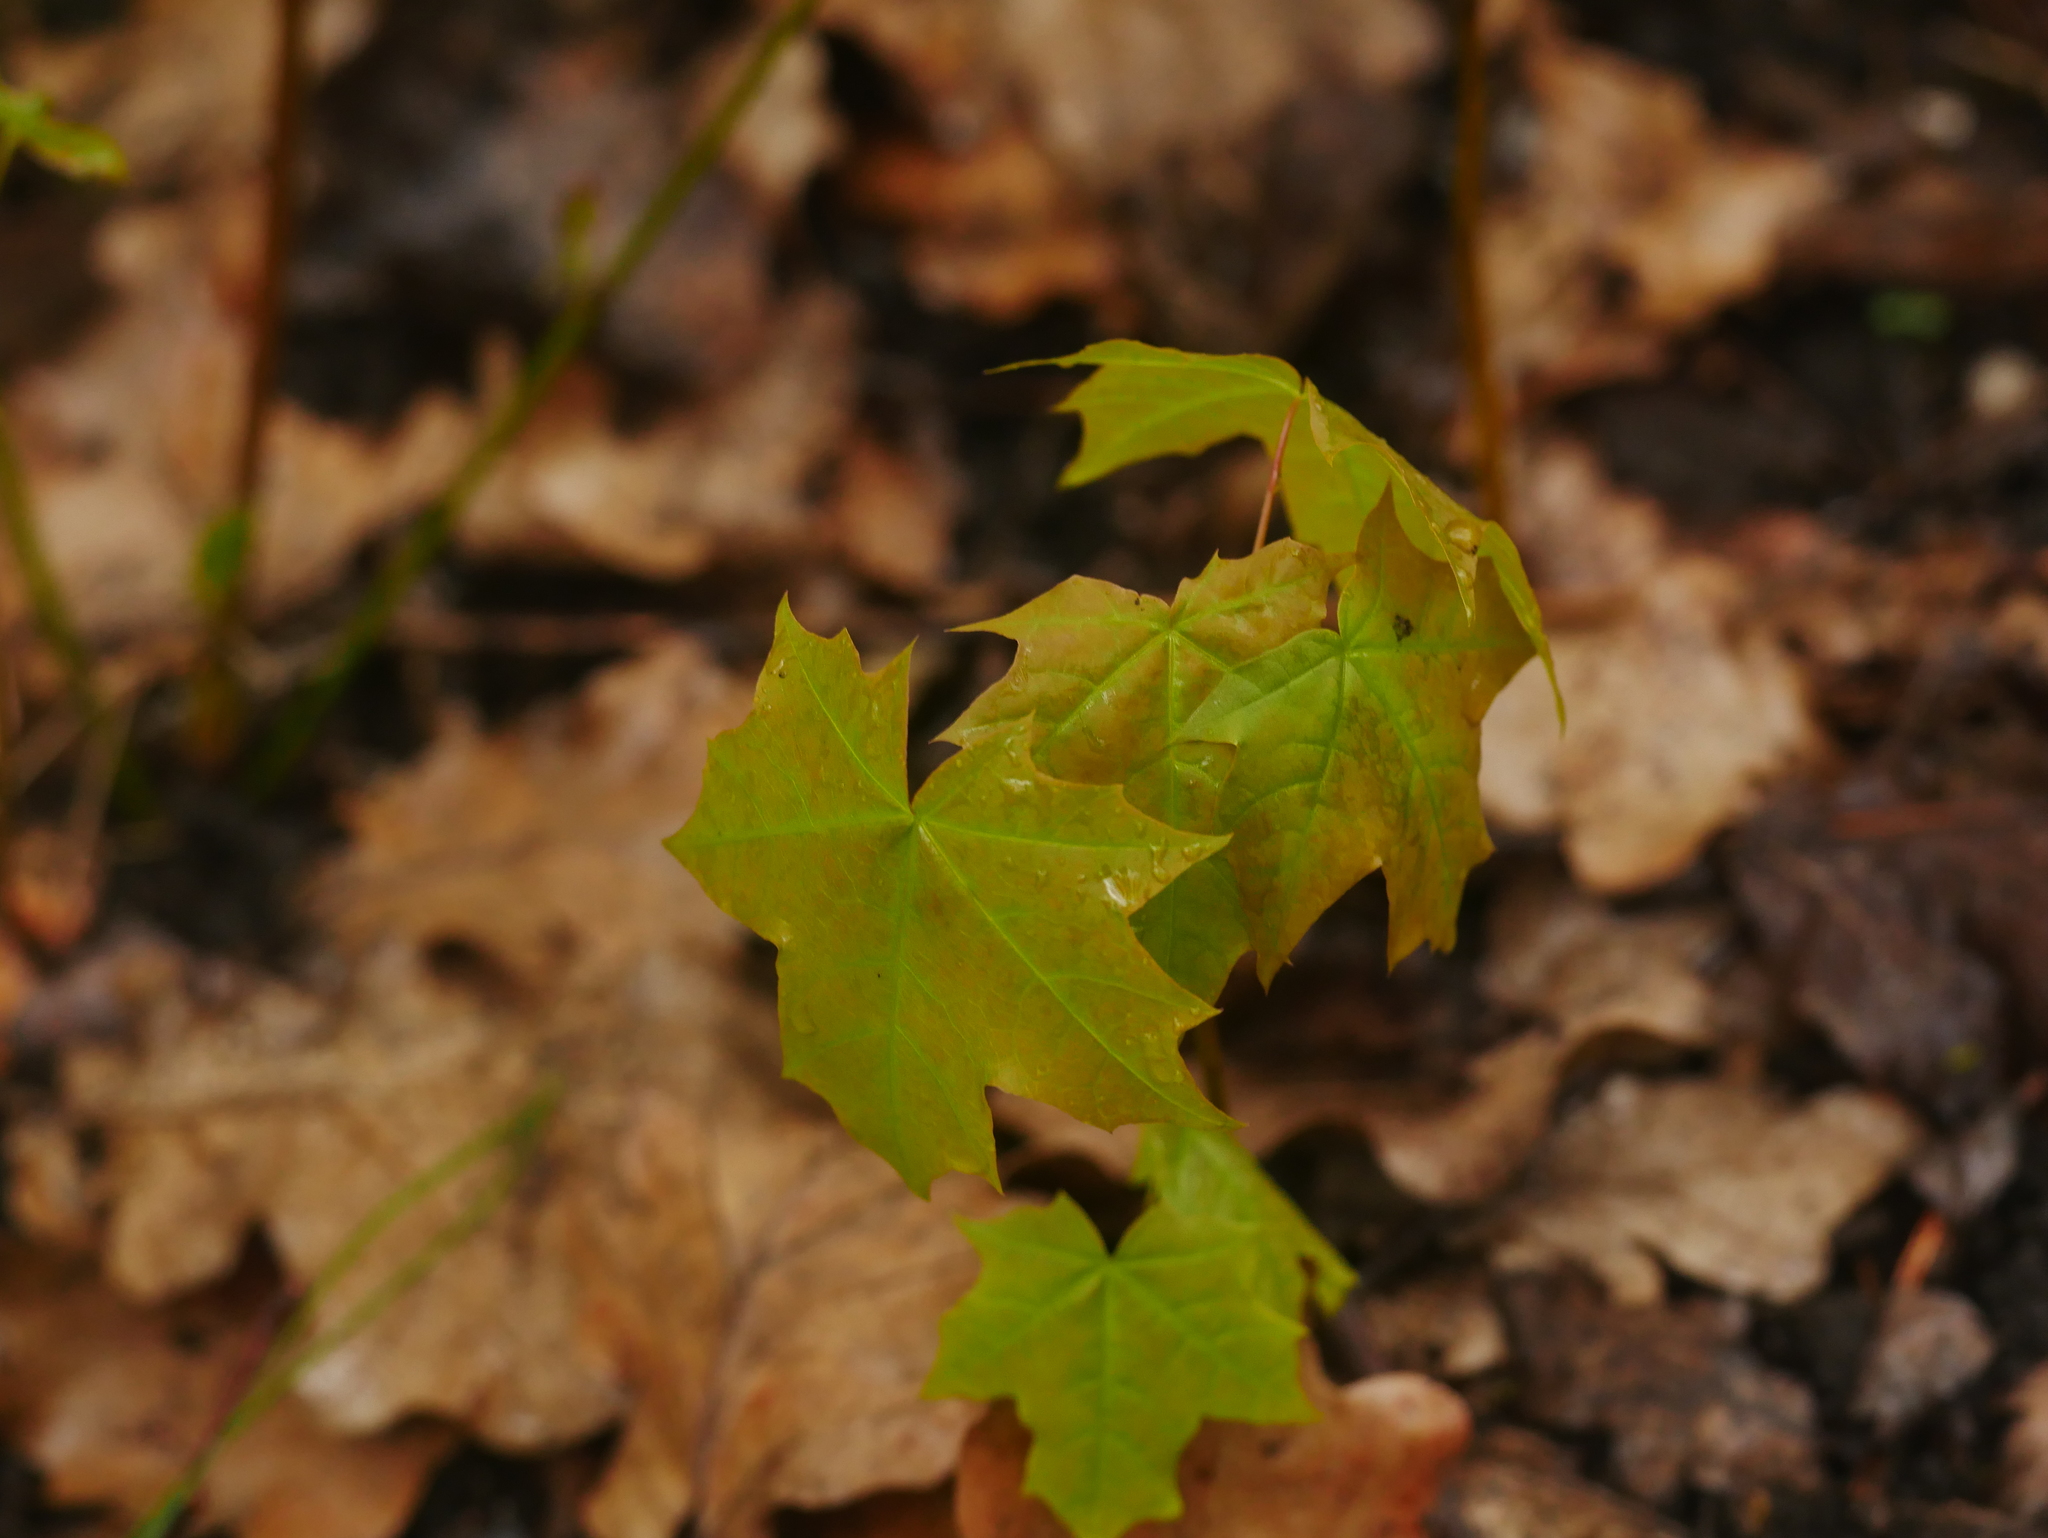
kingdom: Plantae
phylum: Tracheophyta
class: Magnoliopsida
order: Sapindales
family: Sapindaceae
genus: Acer
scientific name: Acer platanoides
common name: Norway maple
